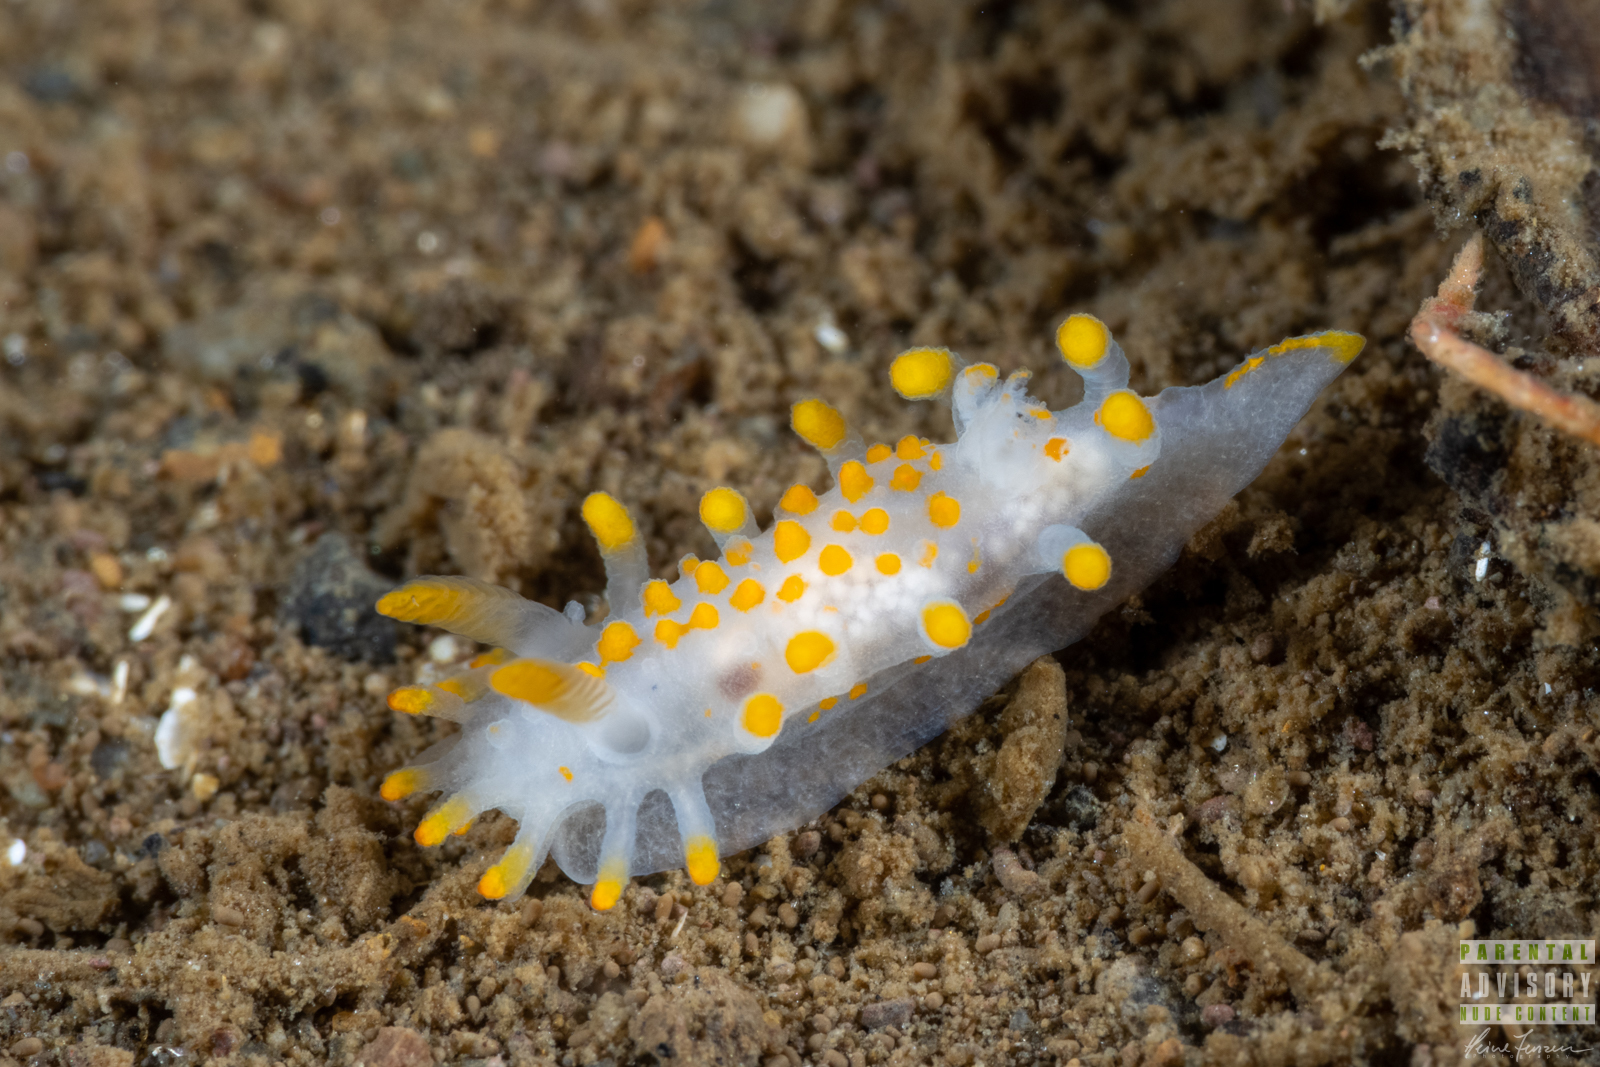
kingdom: Animalia
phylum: Mollusca
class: Gastropoda
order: Nudibranchia
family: Polyceridae
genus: Limacia
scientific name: Limacia clavigera
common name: Orange-clubbed sea slug
